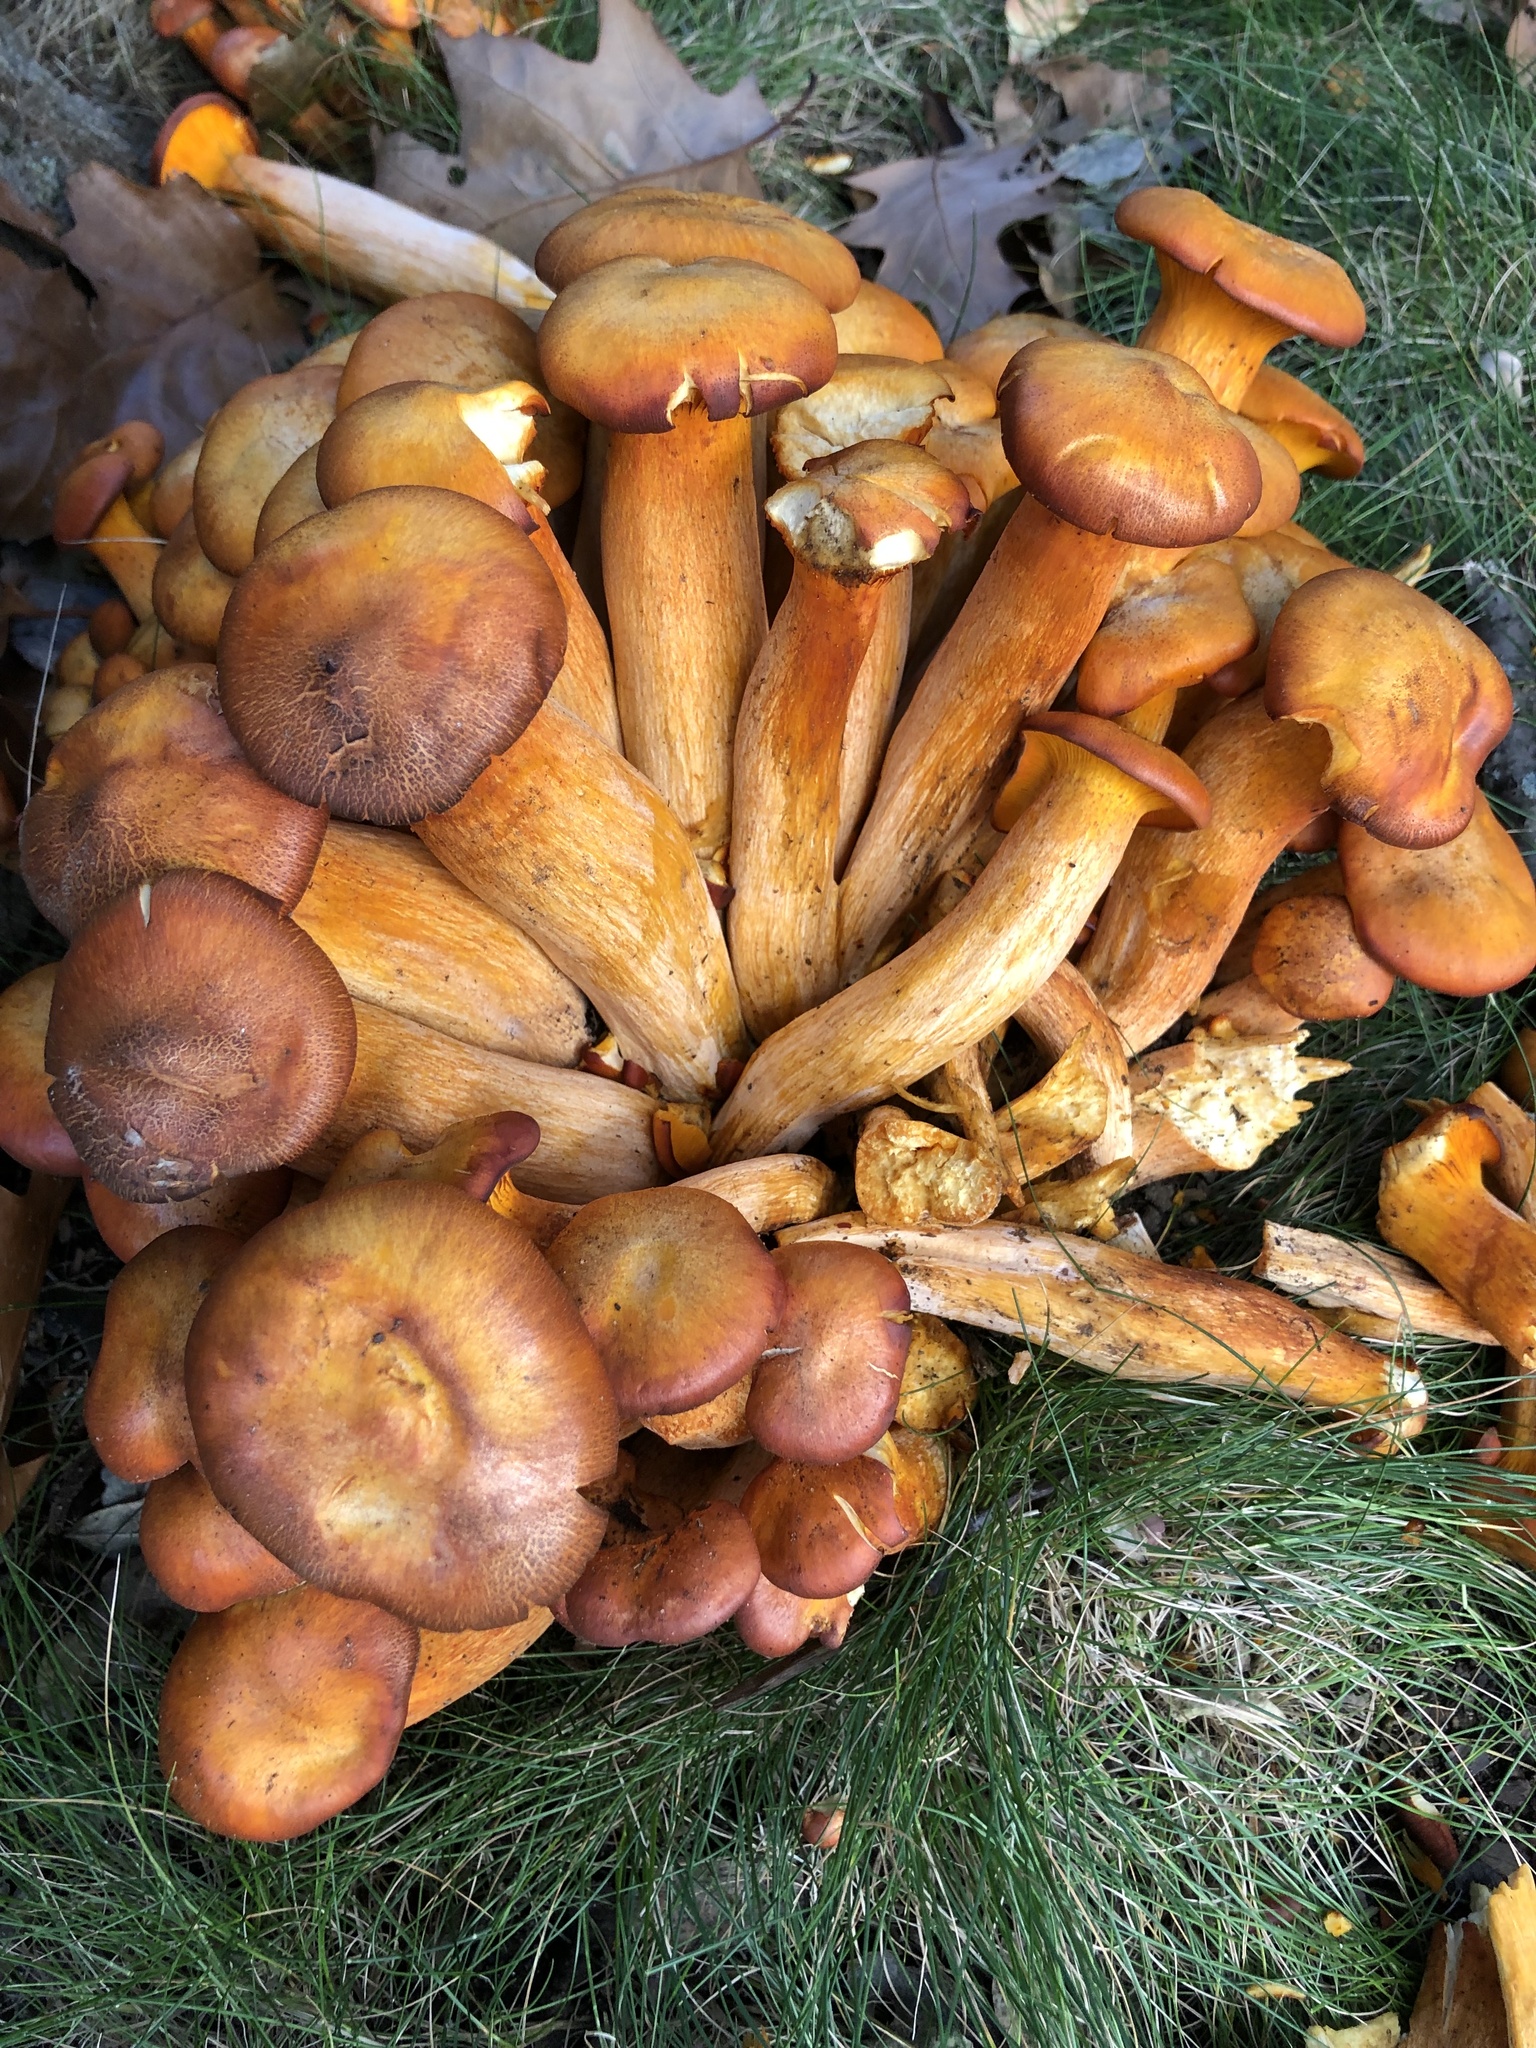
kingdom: Fungi
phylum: Basidiomycota
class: Agaricomycetes
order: Agaricales
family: Omphalotaceae
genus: Omphalotus
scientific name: Omphalotus illudens
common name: Jack o lantern
